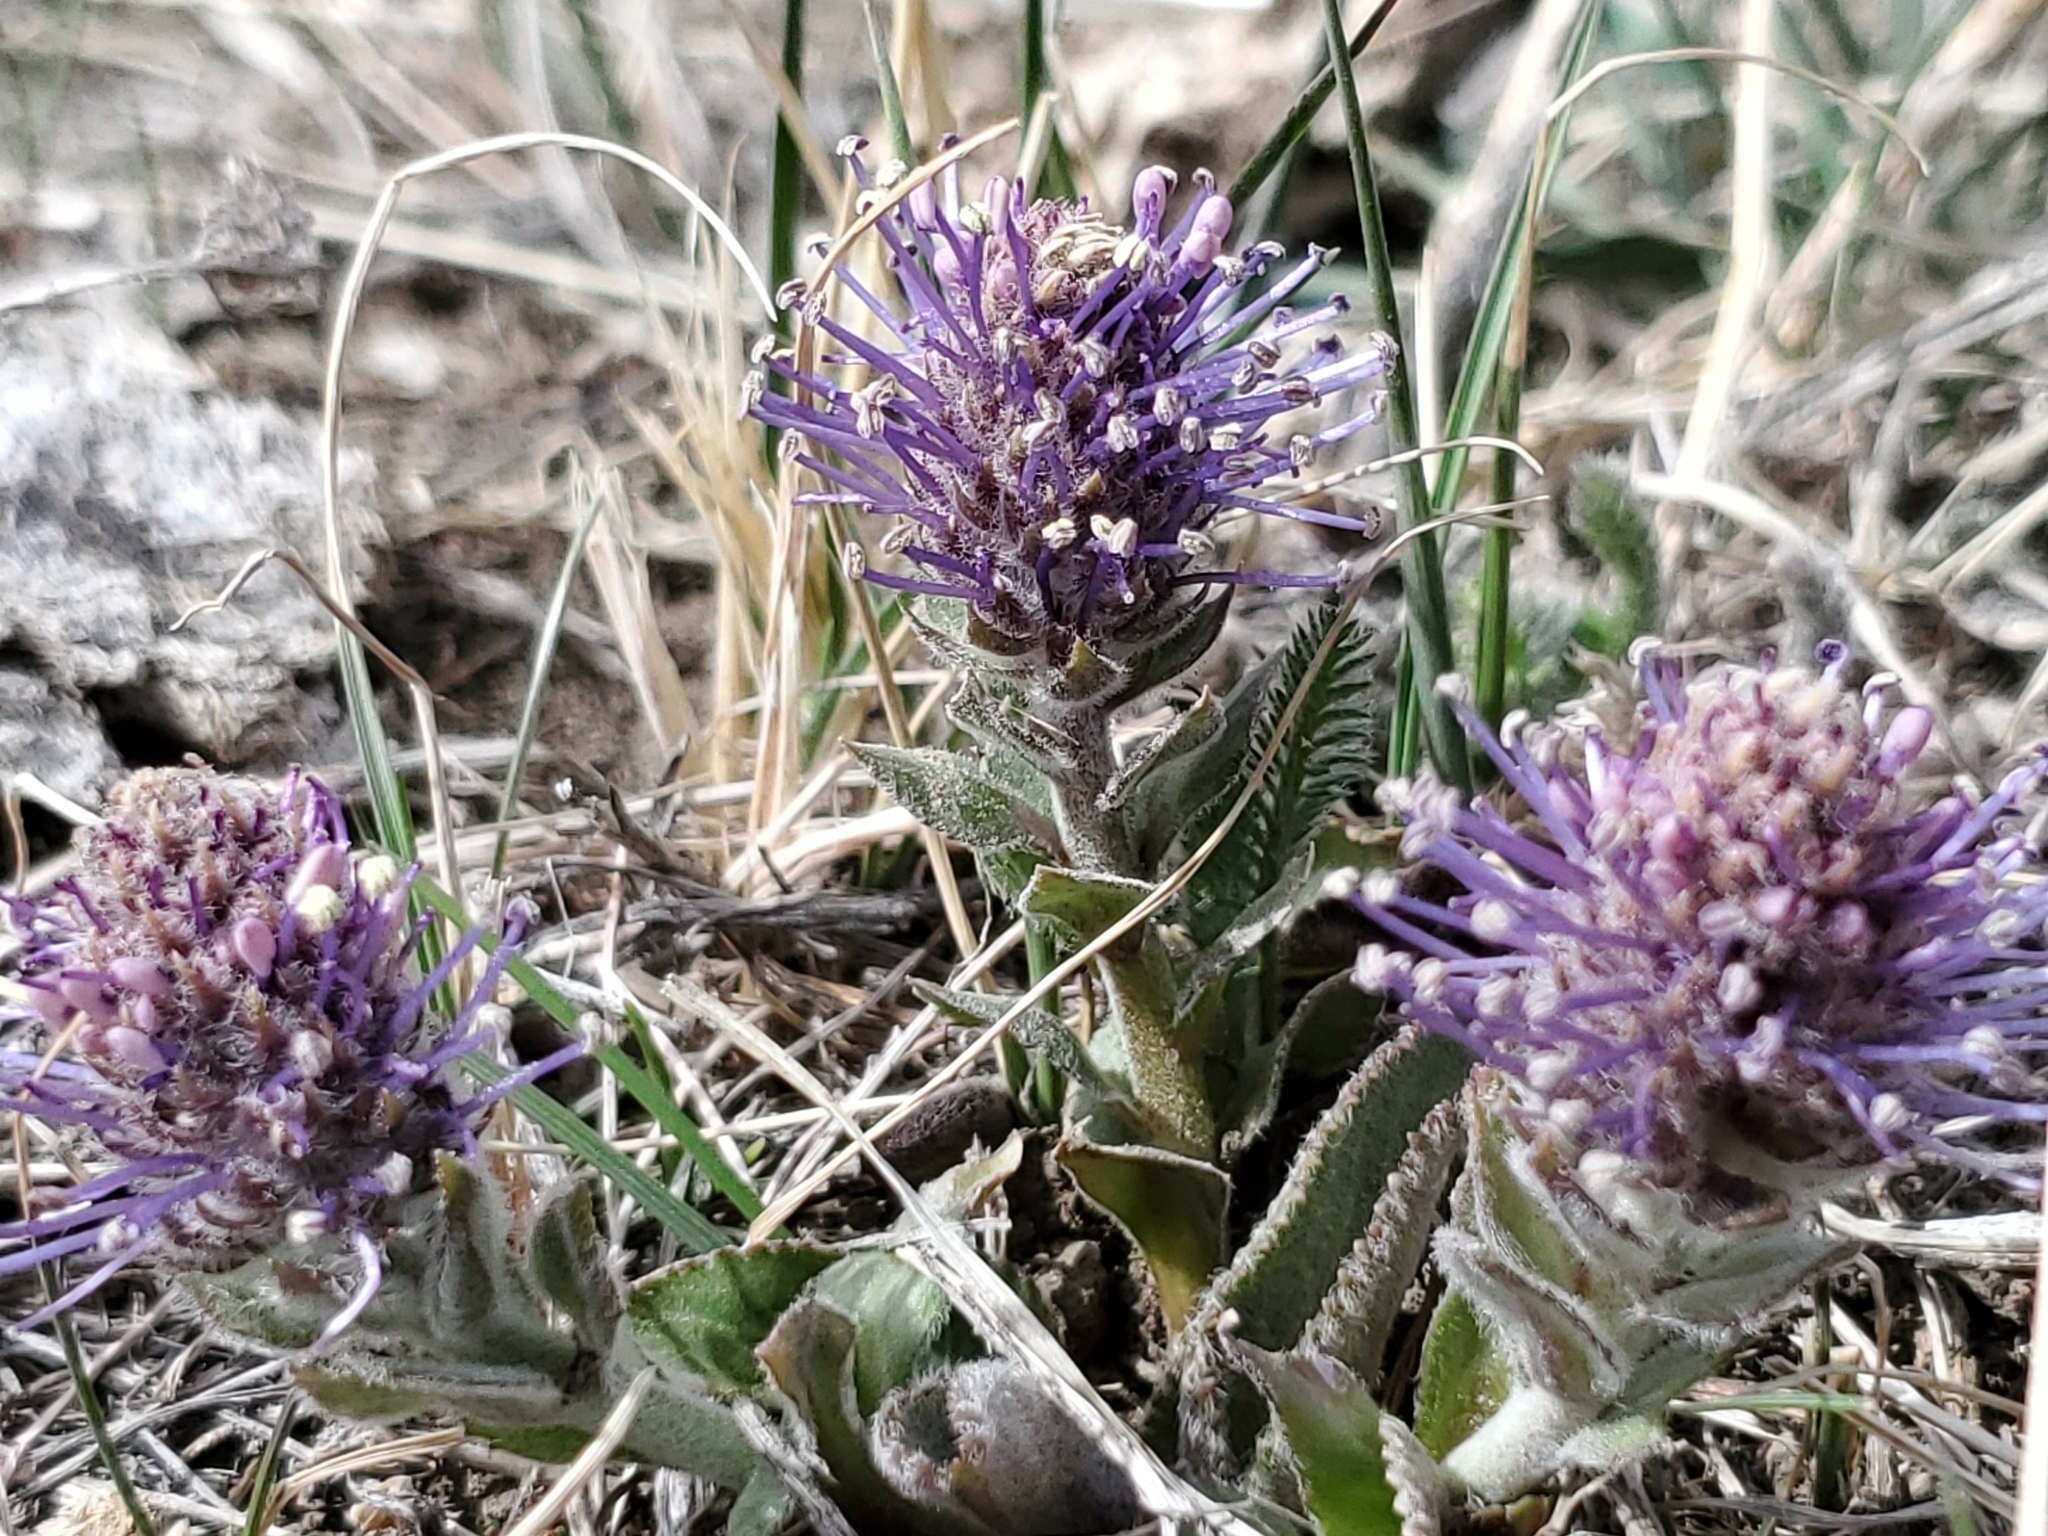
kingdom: Plantae
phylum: Tracheophyta
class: Magnoliopsida
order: Lamiales
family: Plantaginaceae
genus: Synthyris
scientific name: Synthyris wyomingensis
